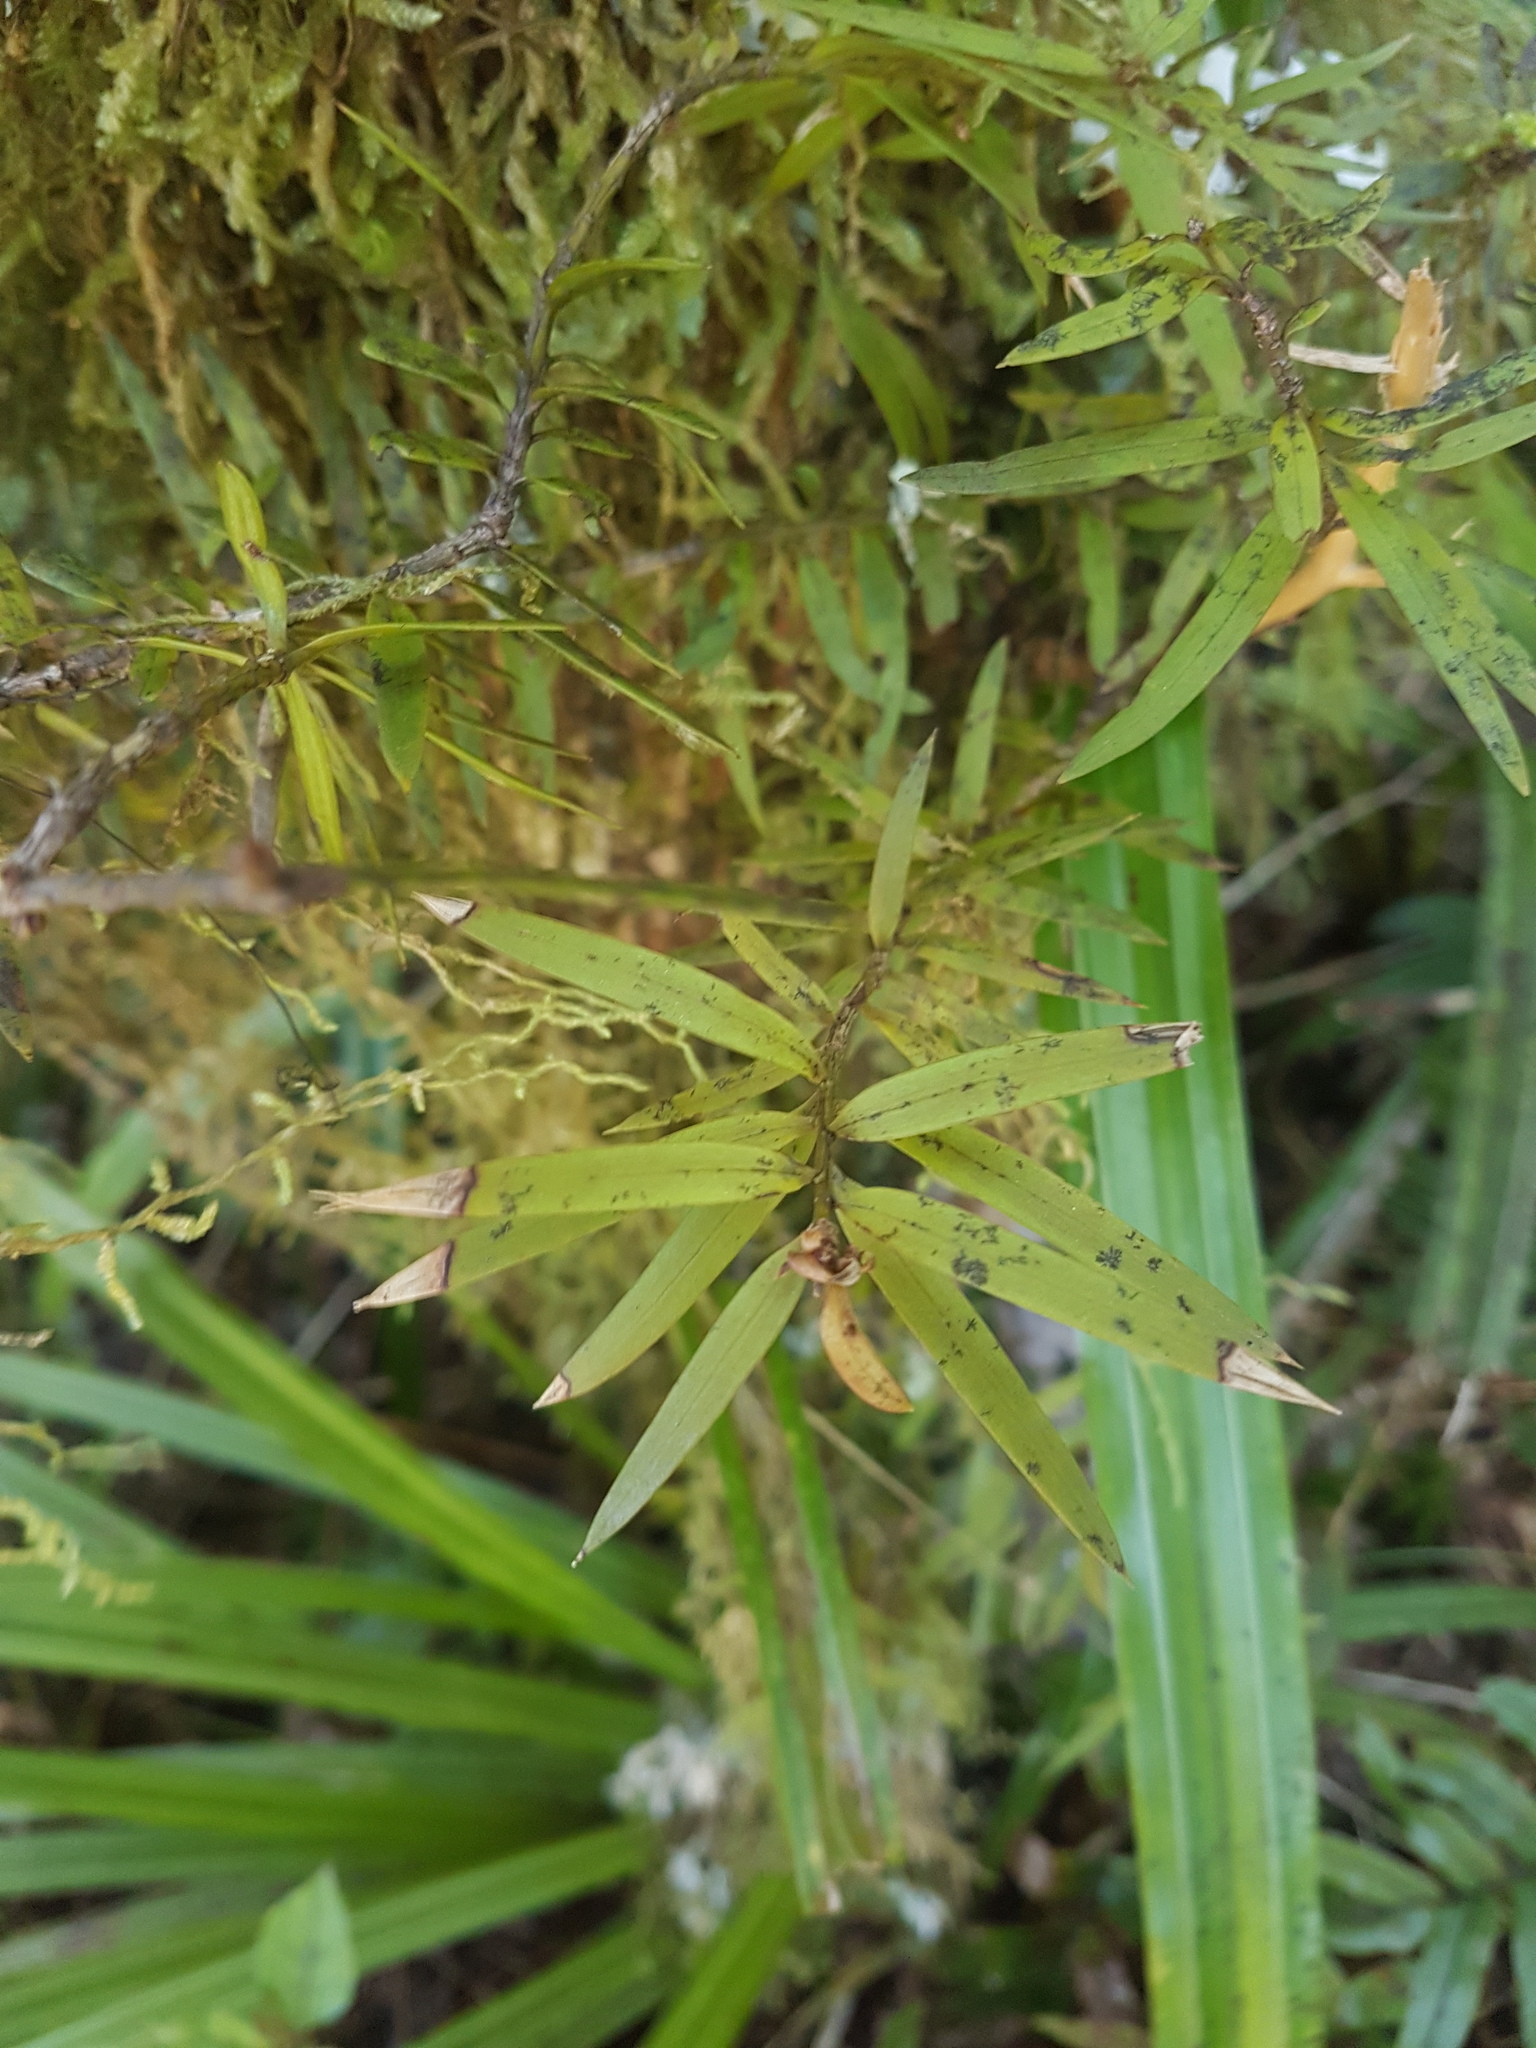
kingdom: Plantae
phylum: Tracheophyta
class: Pinopsida
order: Pinales
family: Podocarpaceae
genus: Podocarpus
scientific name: Podocarpus laetus
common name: Hall's totara
